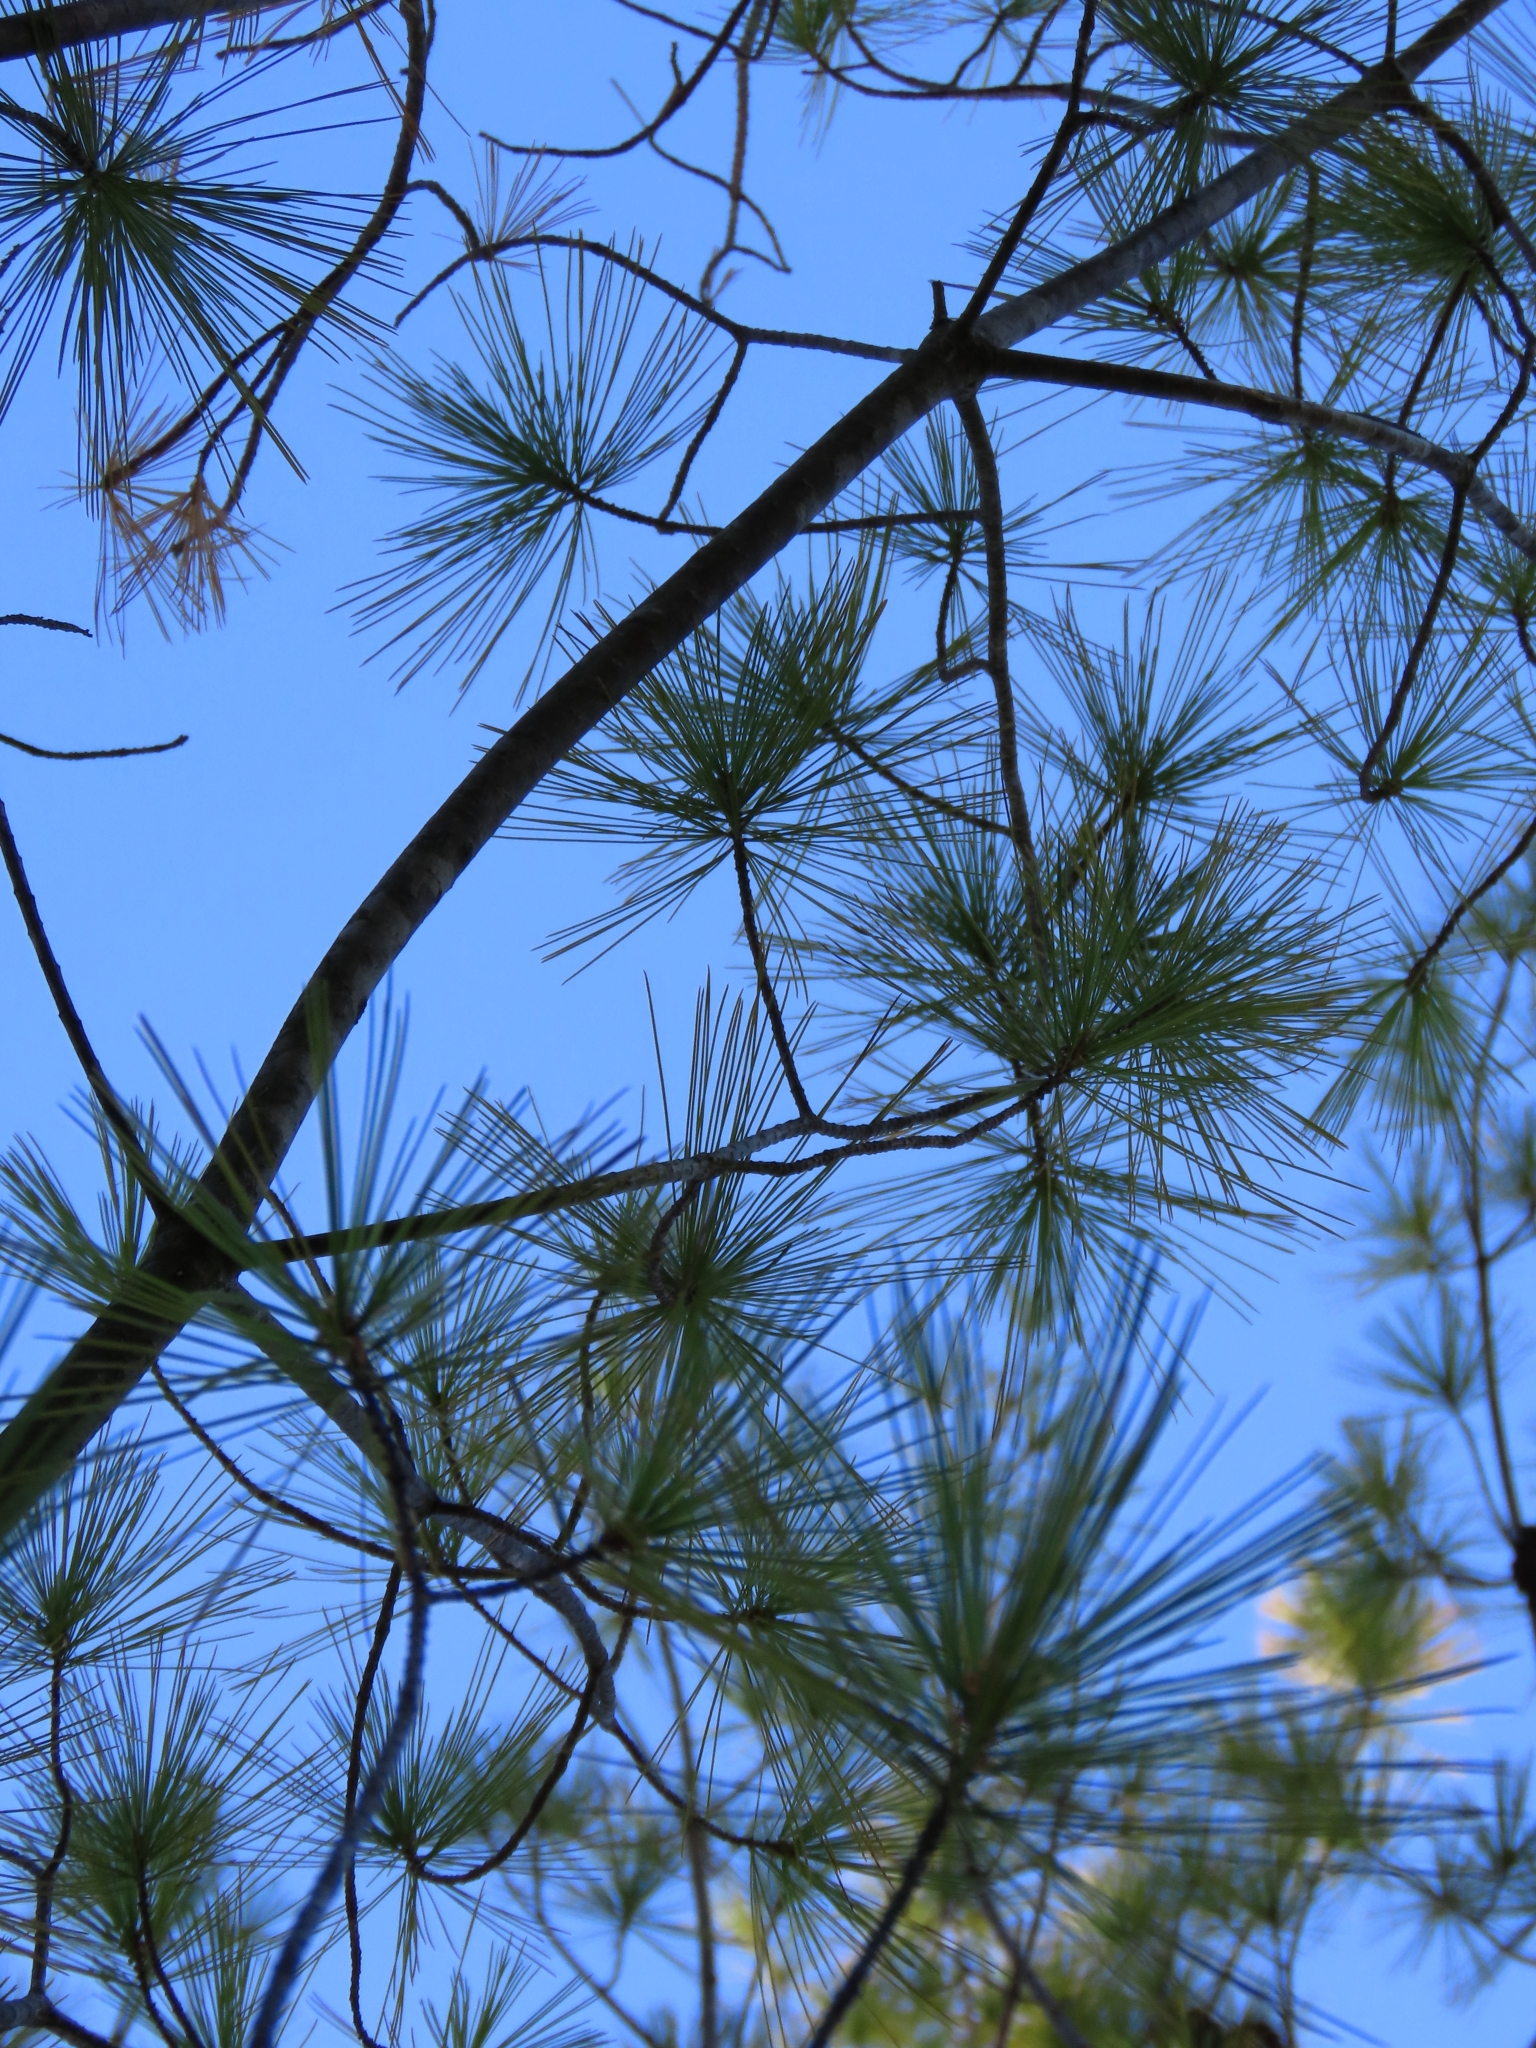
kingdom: Plantae
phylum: Tracheophyta
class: Pinopsida
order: Pinales
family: Pinaceae
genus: Pinus
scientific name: Pinus strobus
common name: Weymouth pine
